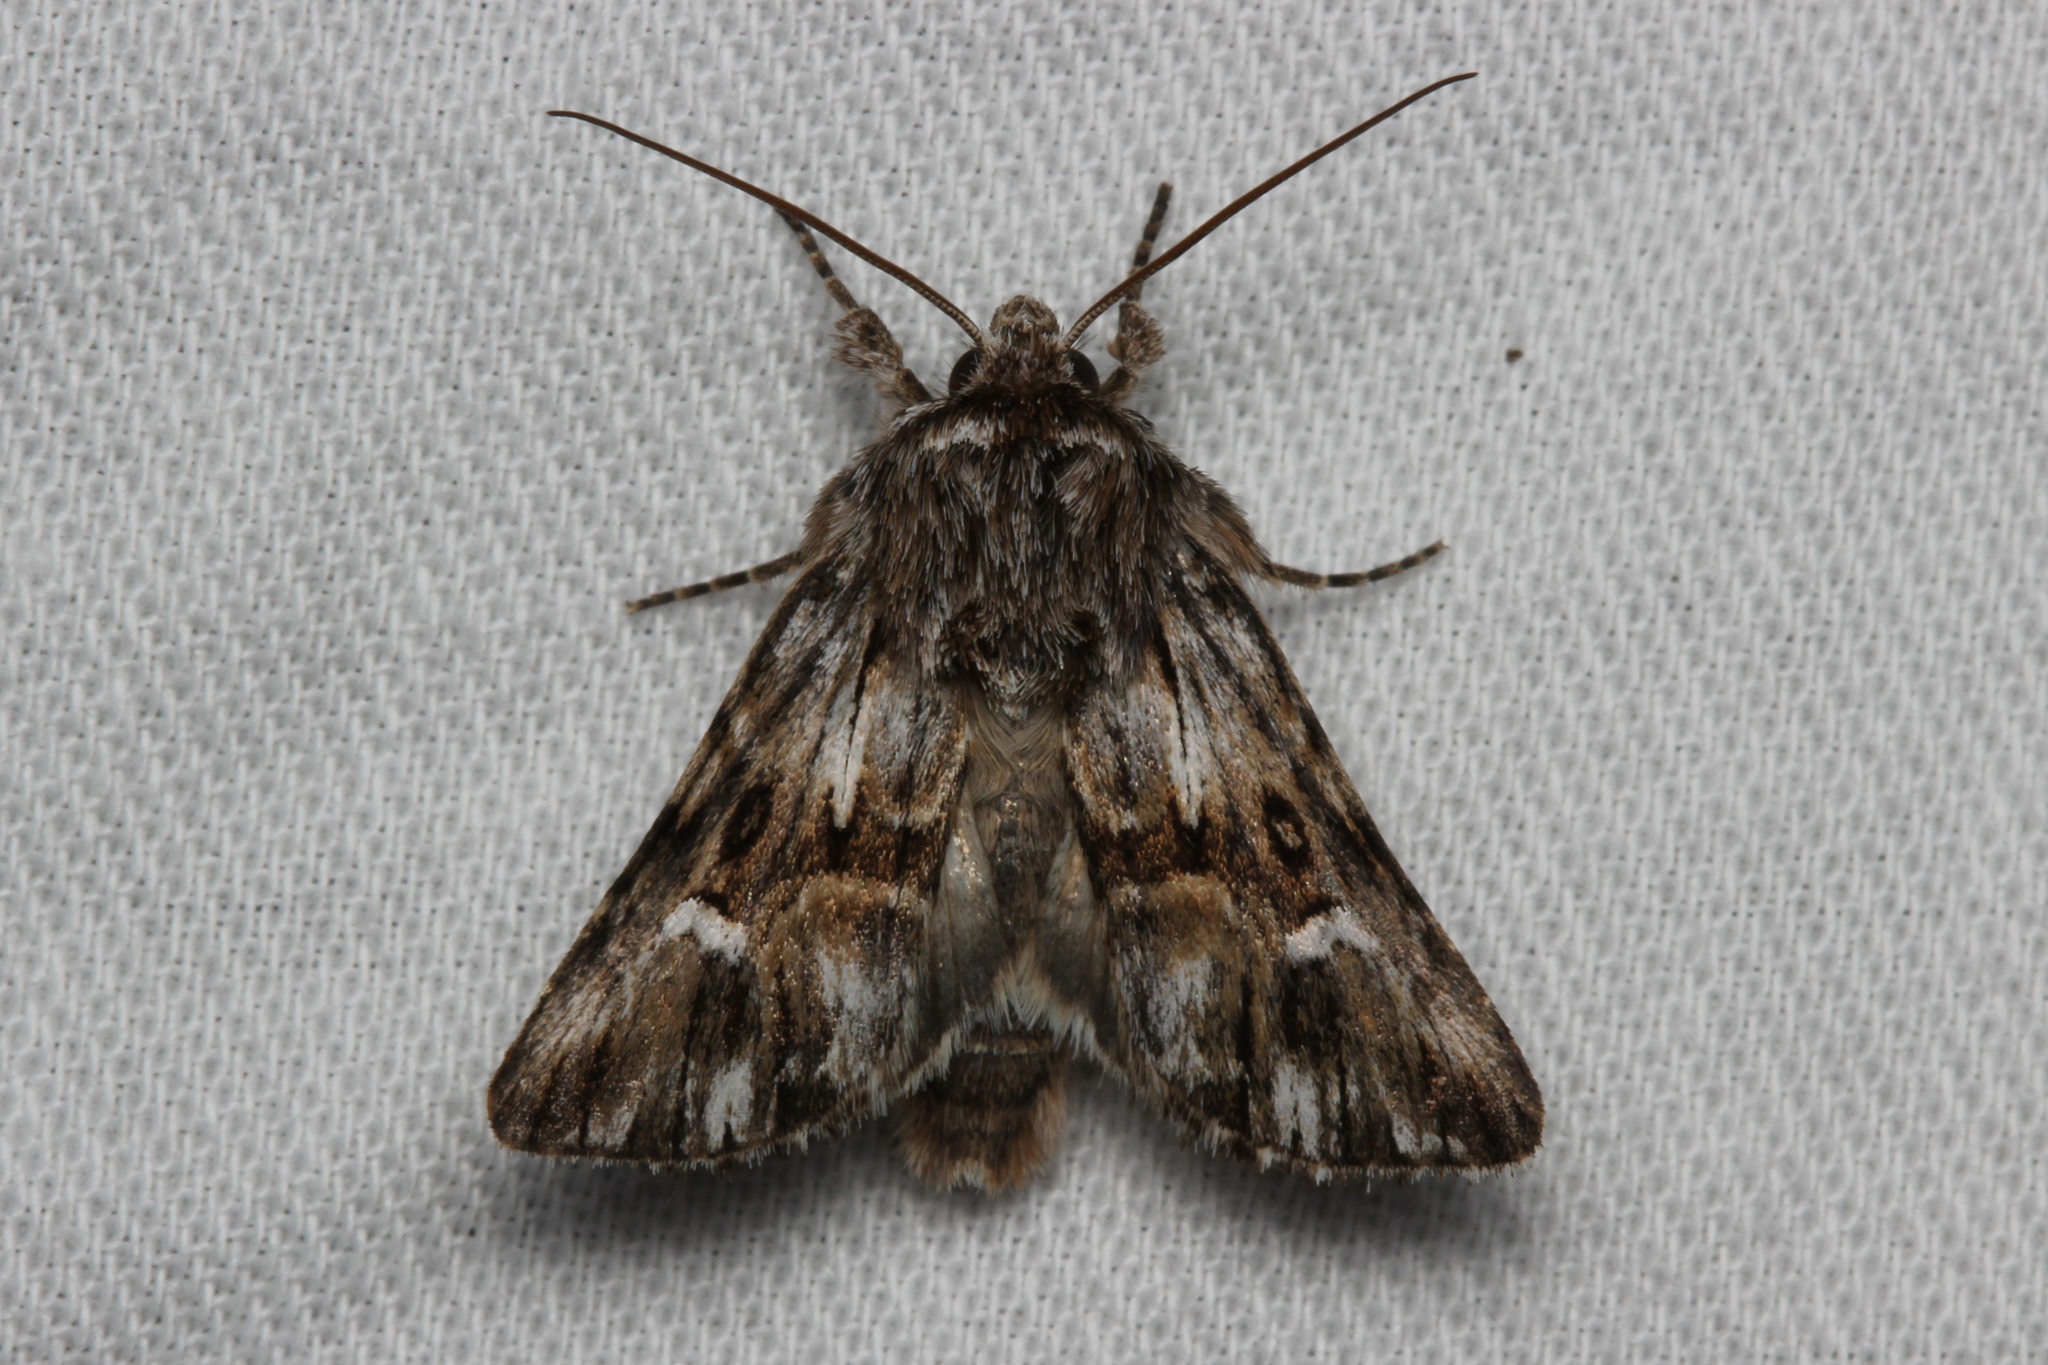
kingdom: Animalia
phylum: Arthropoda
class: Insecta
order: Lepidoptera
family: Noctuidae
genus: Calophasia
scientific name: Calophasia lunula
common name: Toadflax brocade
